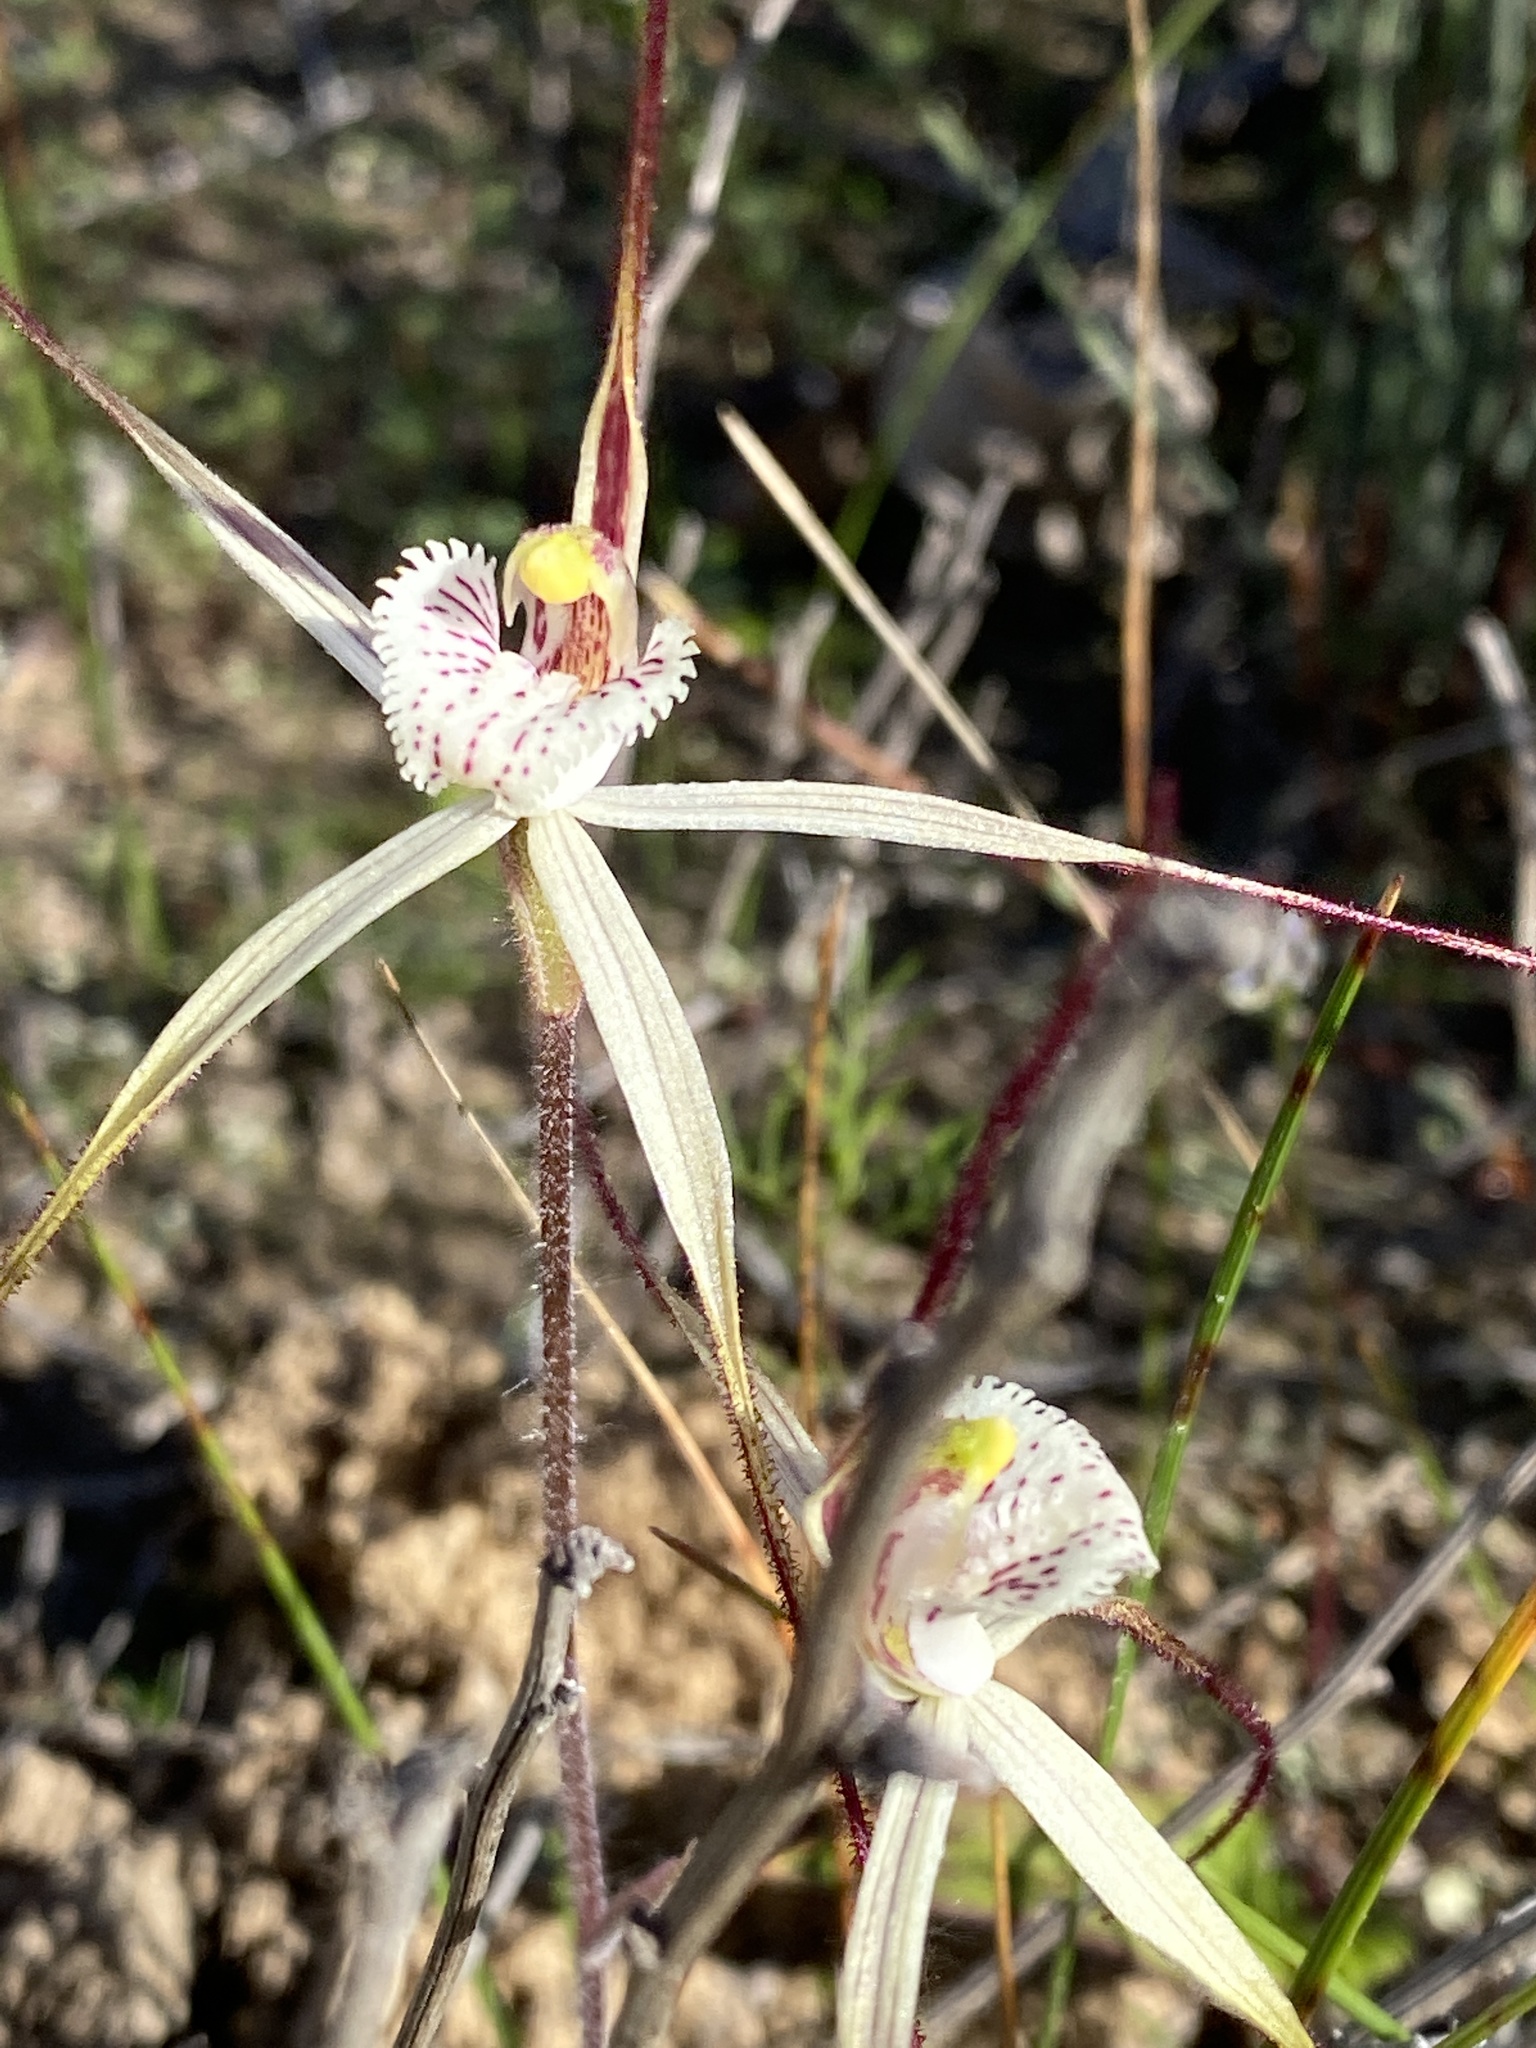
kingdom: Plantae
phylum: Tracheophyta
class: Liliopsida
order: Asparagales
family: Orchidaceae
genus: Caladenia
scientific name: Caladenia nobilis
